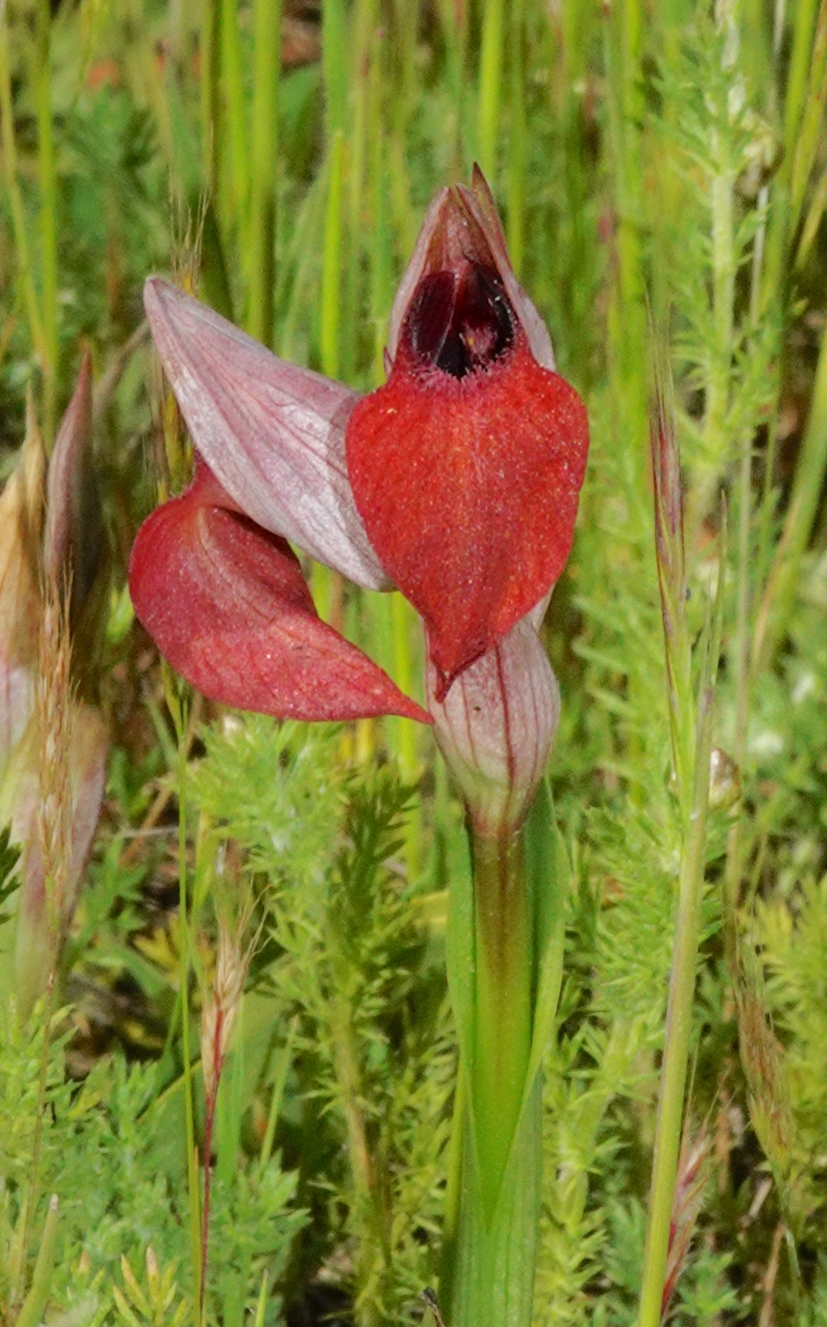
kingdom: Plantae
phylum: Tracheophyta
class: Liliopsida
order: Asparagales
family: Orchidaceae
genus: Serapias
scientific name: Serapias cordigera
